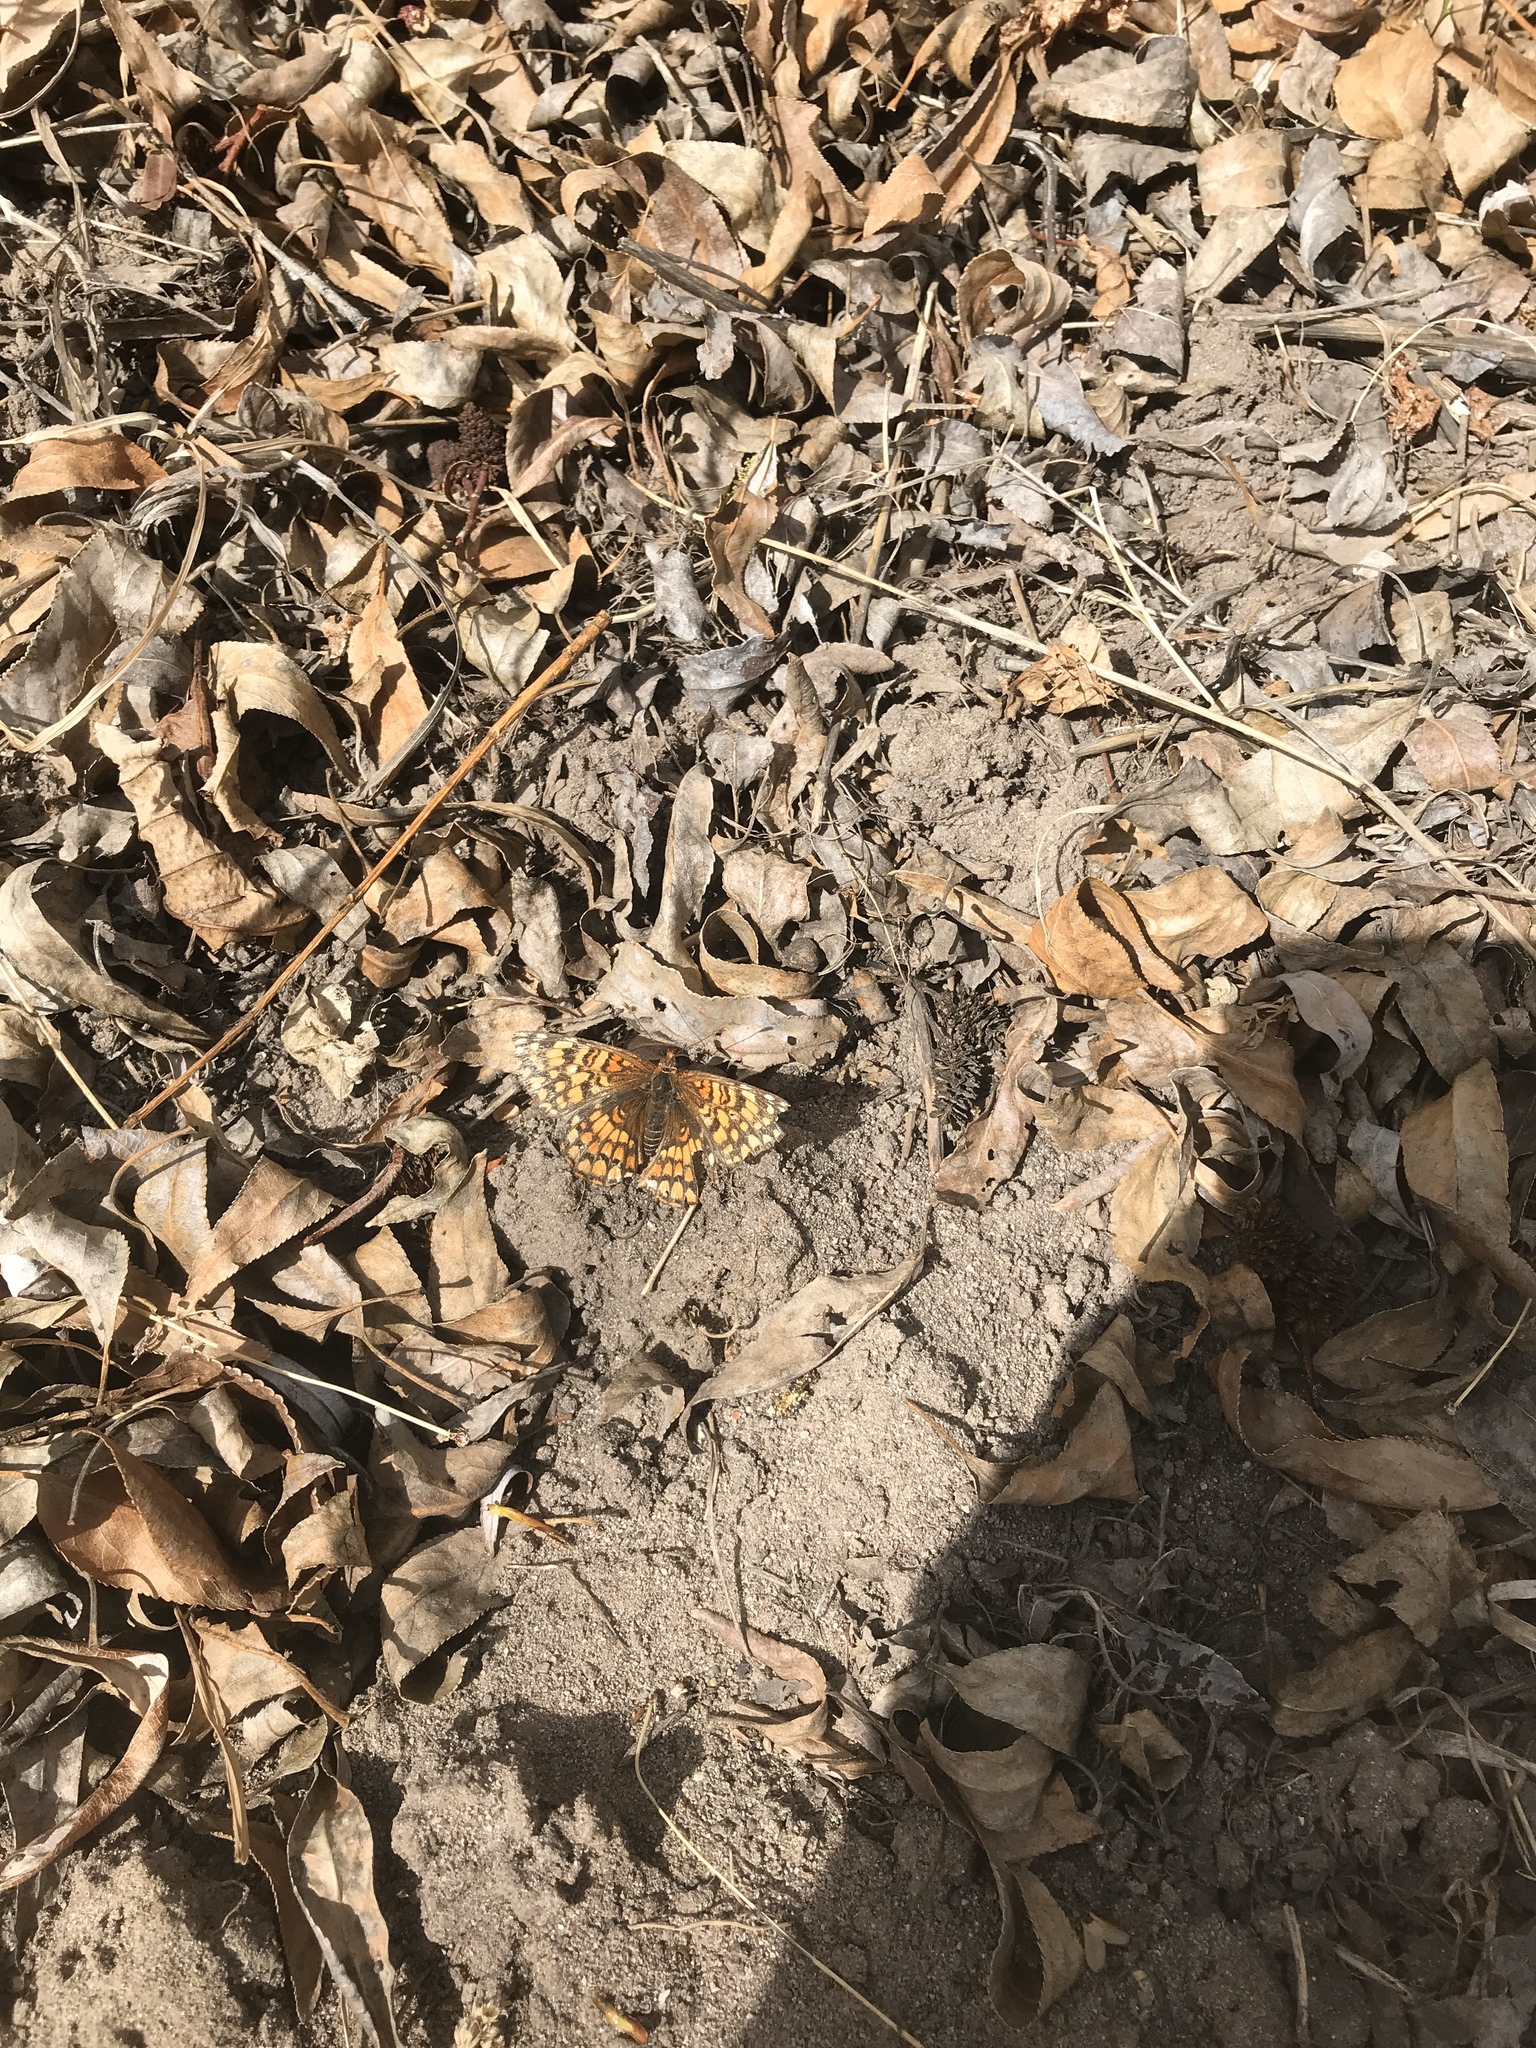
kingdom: Animalia
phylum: Arthropoda
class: Insecta
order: Lepidoptera
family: Nymphalidae
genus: Chlosyne
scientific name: Chlosyne acastus
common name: Sagebrush checkerspot
